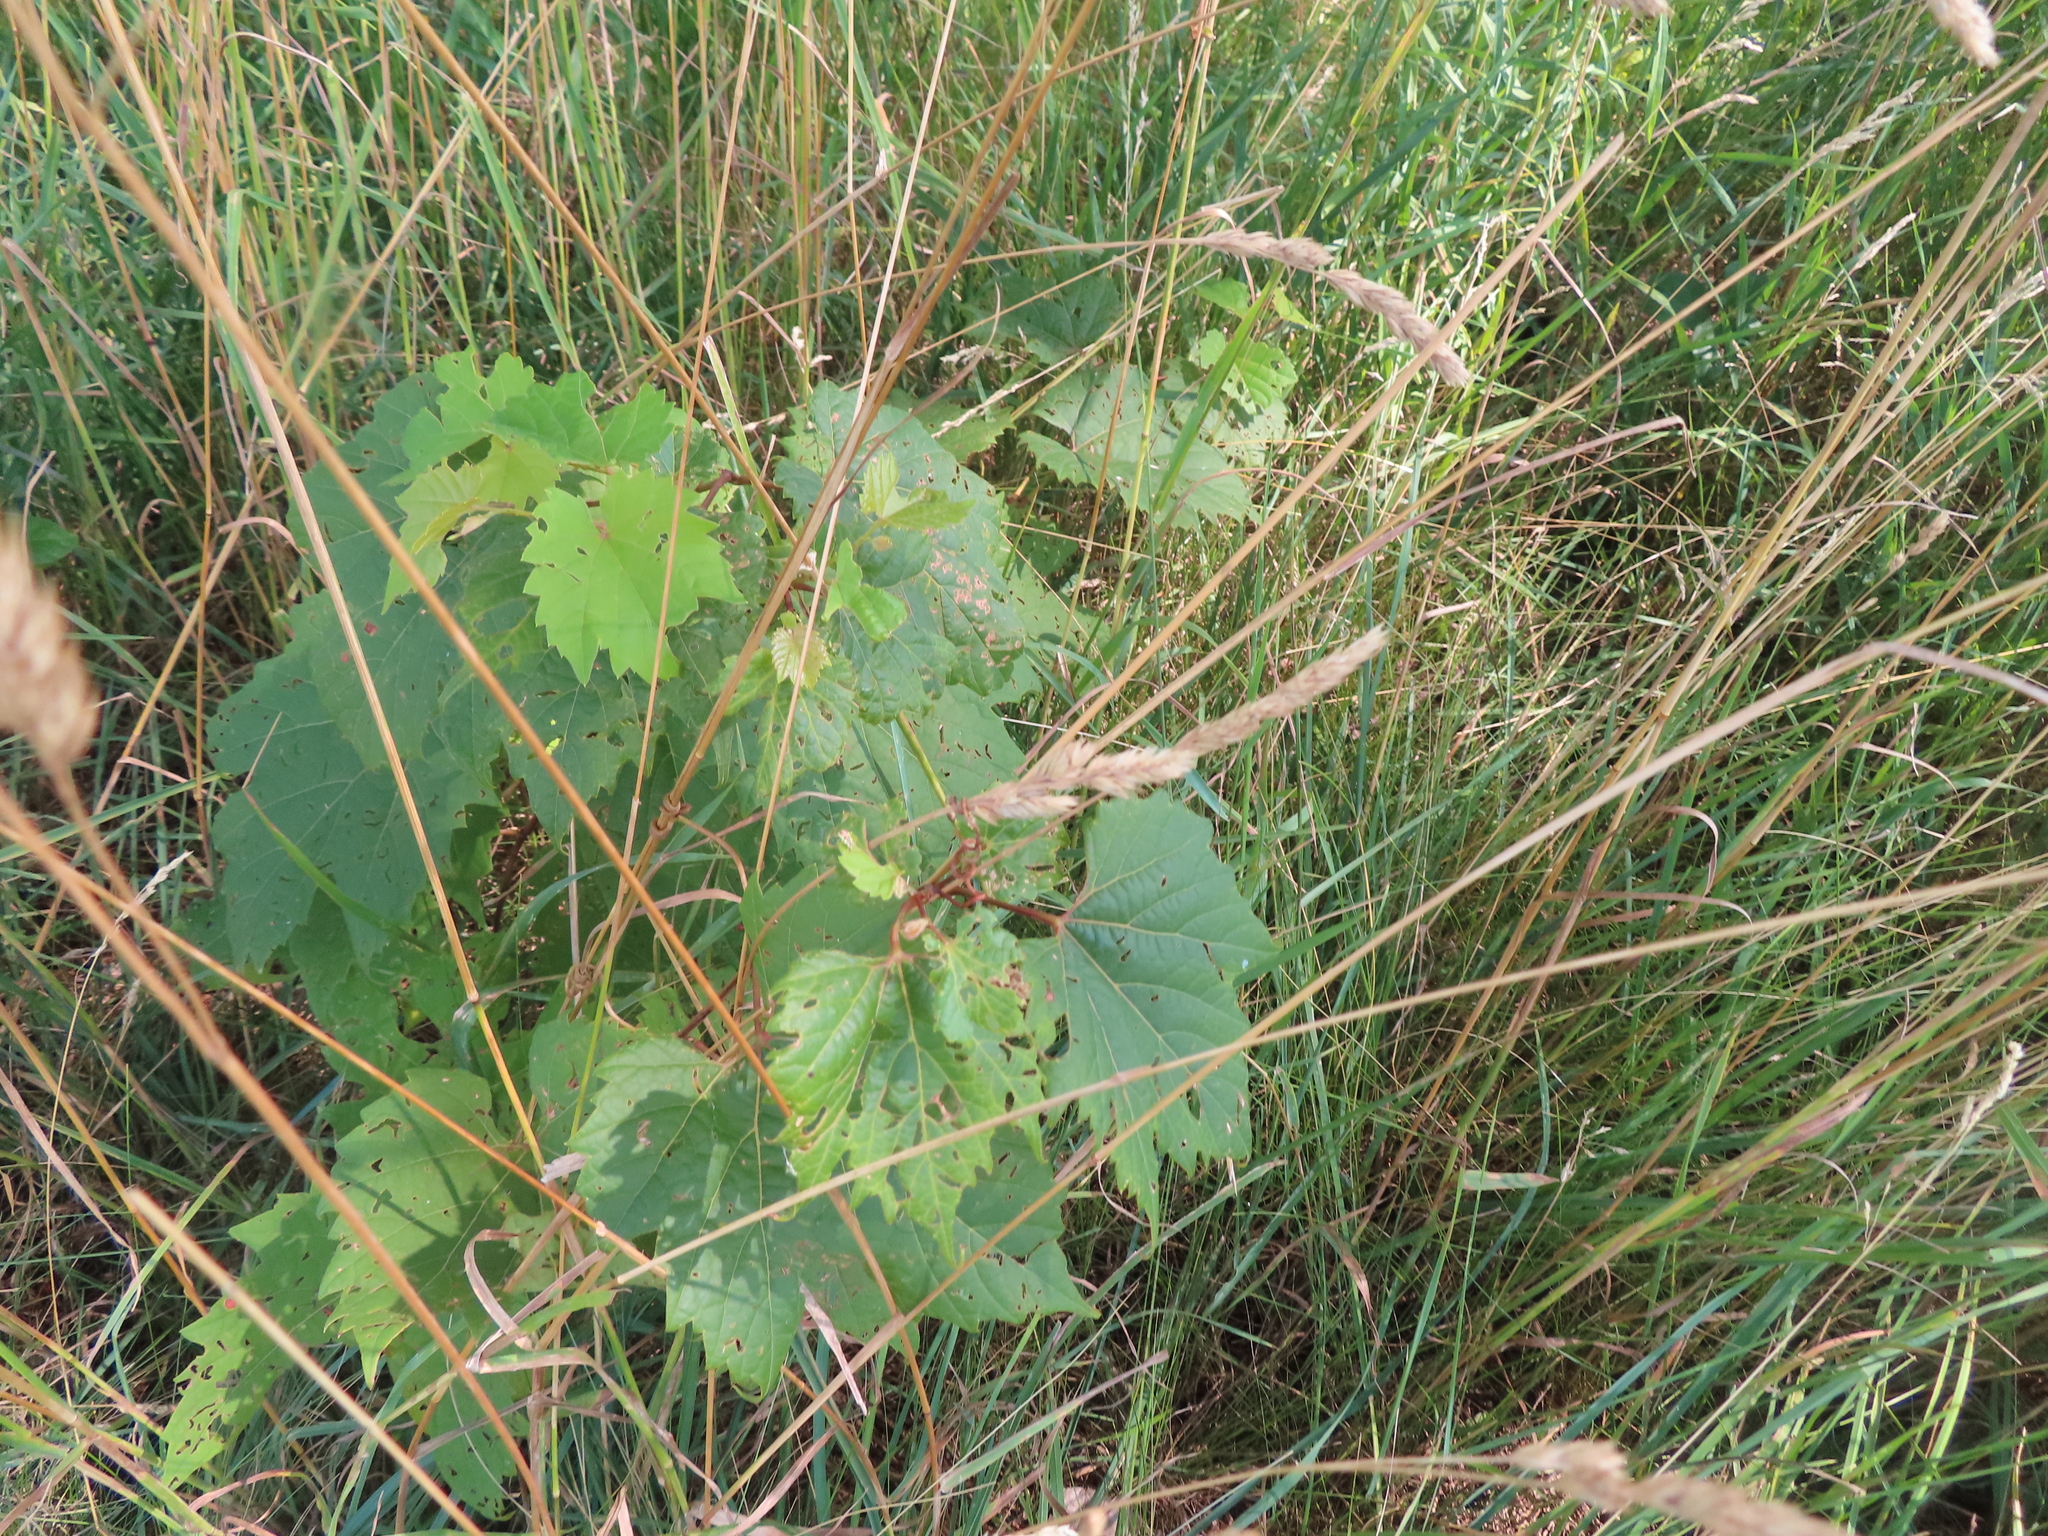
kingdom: Plantae
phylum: Tracheophyta
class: Magnoliopsida
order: Vitales
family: Vitaceae
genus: Vitis
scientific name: Vitis riparia
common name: Frost grape
